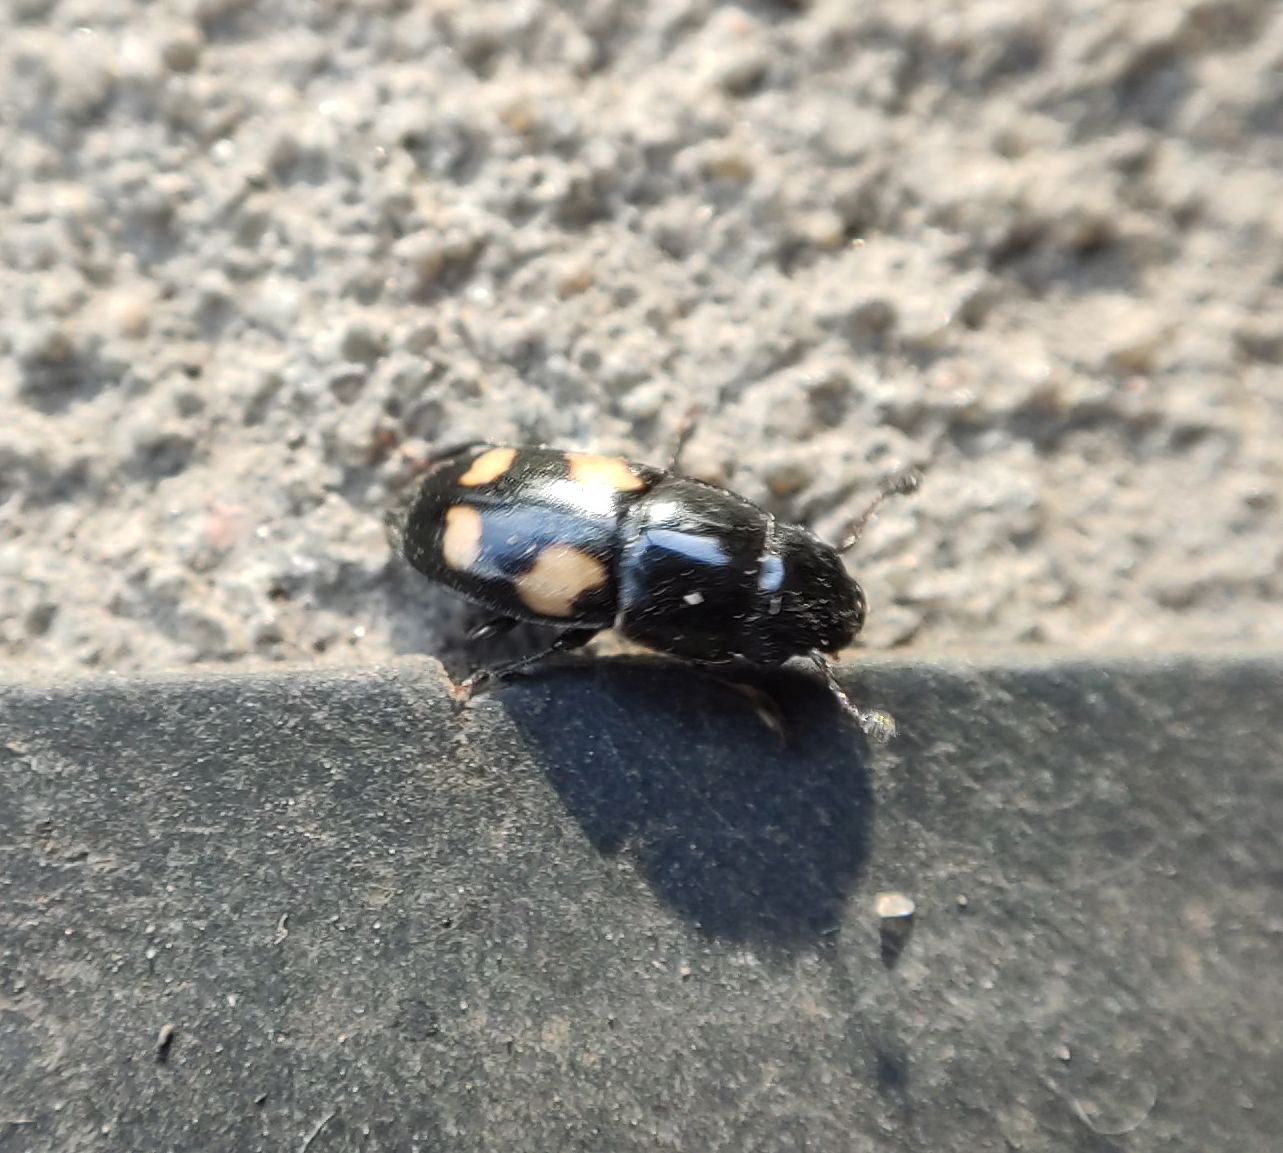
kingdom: Animalia
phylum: Arthropoda
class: Insecta
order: Coleoptera
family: Nitidulidae
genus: Glischrochilus
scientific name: Glischrochilus quadrisignatus
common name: Picnic beetle
